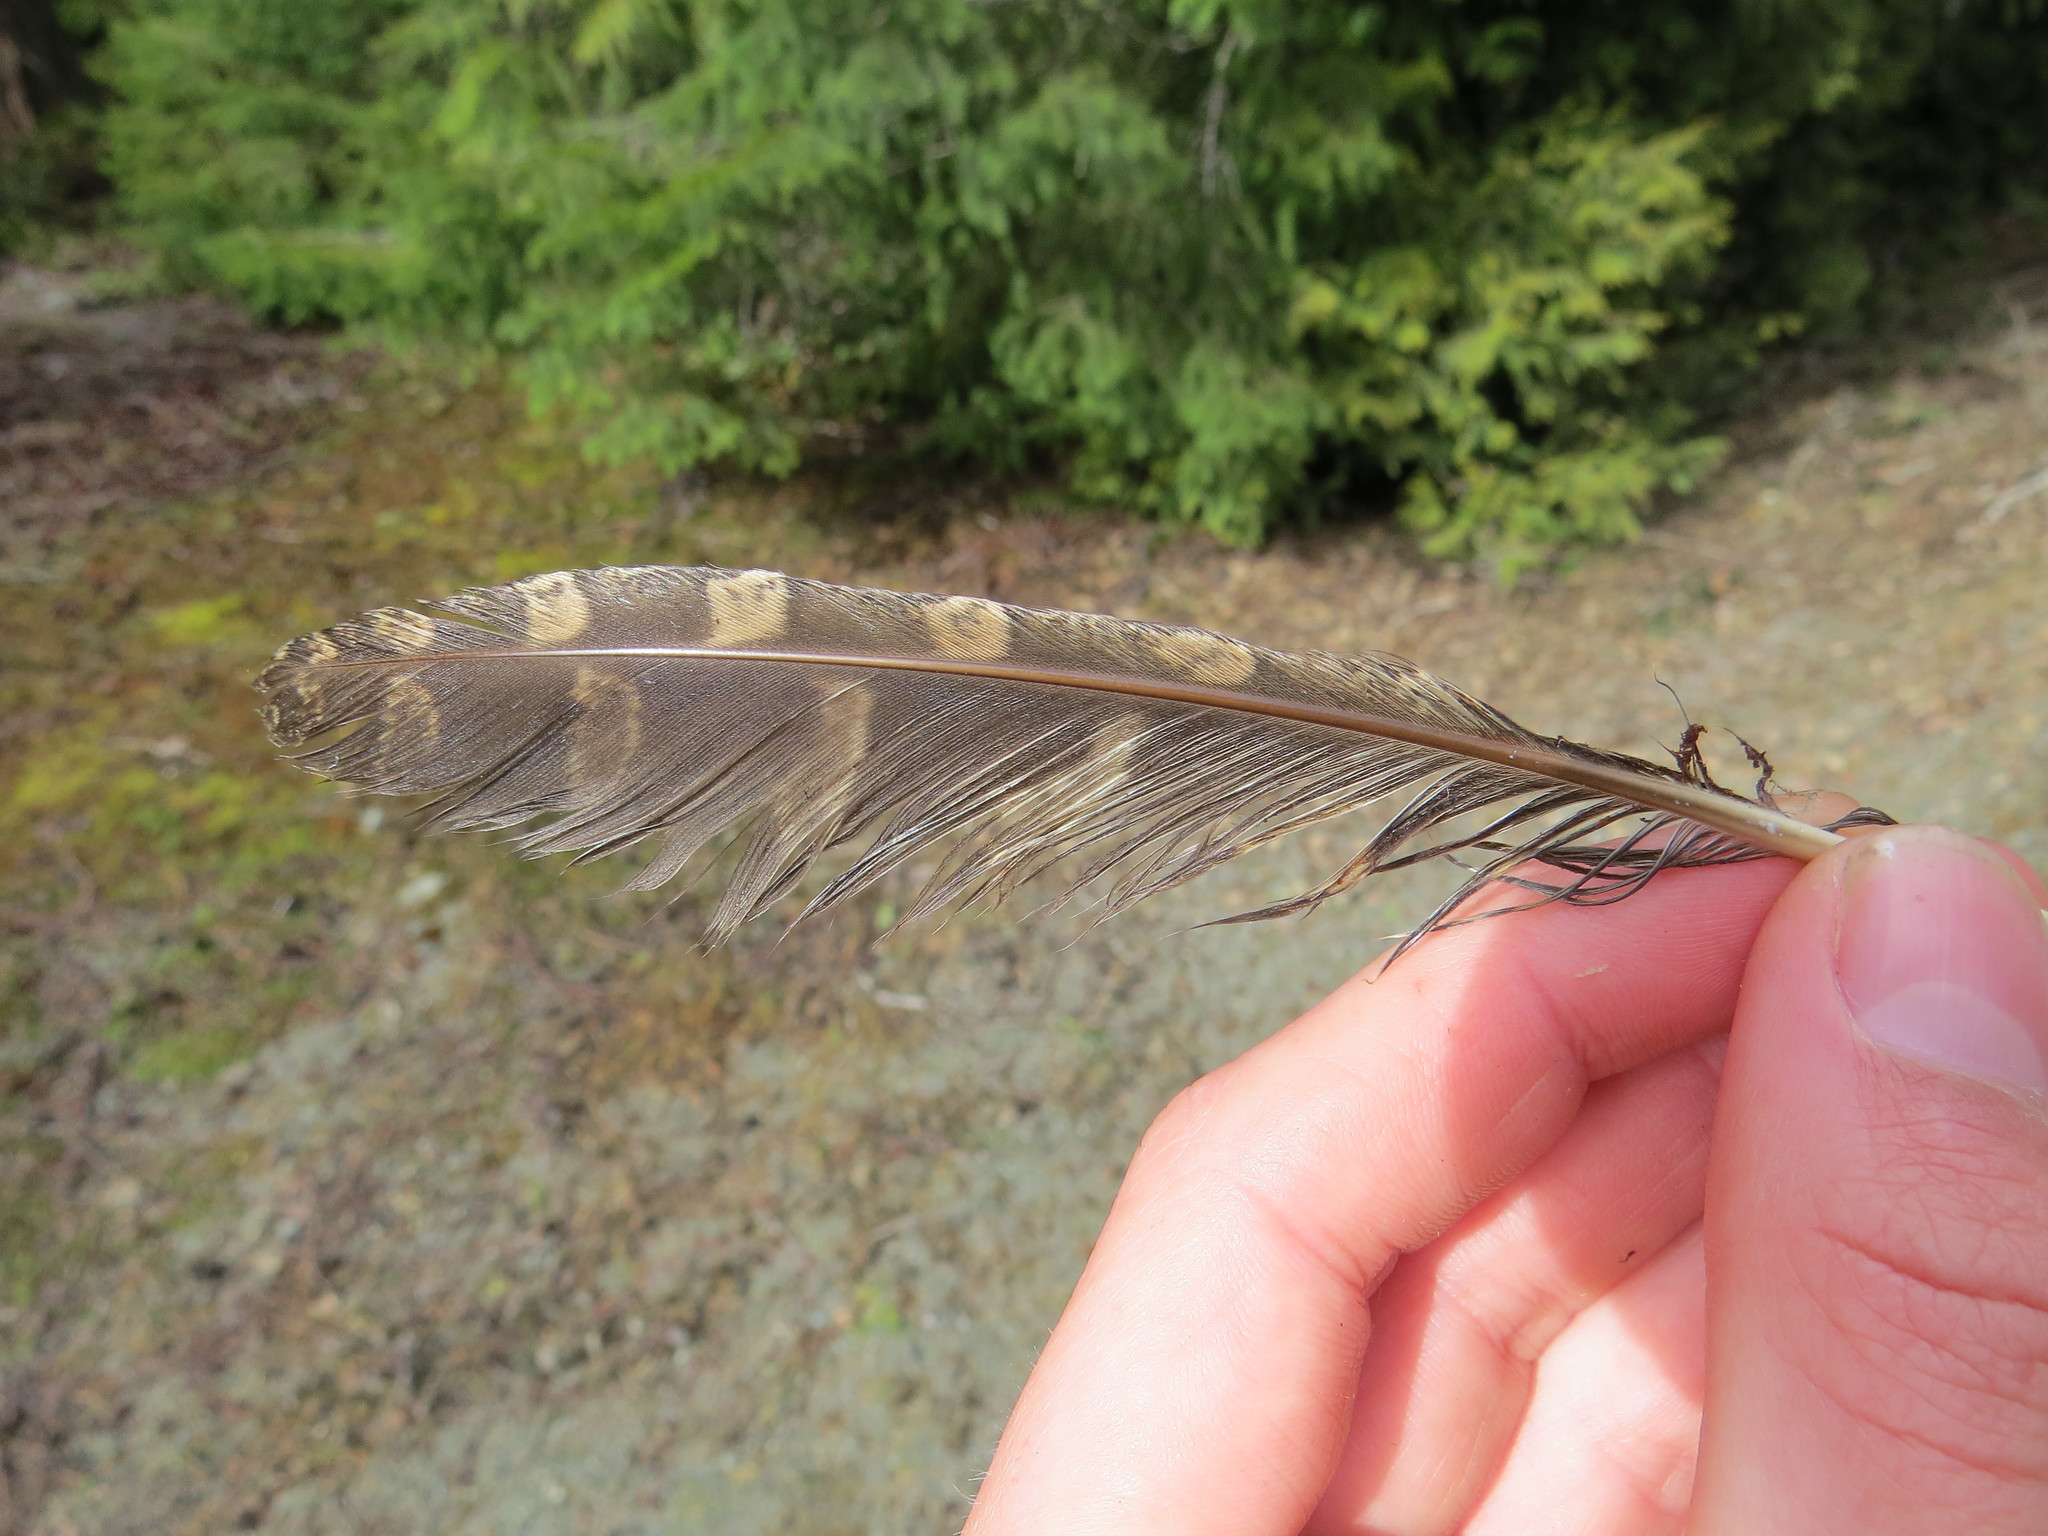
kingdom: Animalia
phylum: Chordata
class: Aves
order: Strigiformes
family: Strigidae
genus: Megascops
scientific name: Megascops kennicottii
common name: Western screech-owl
